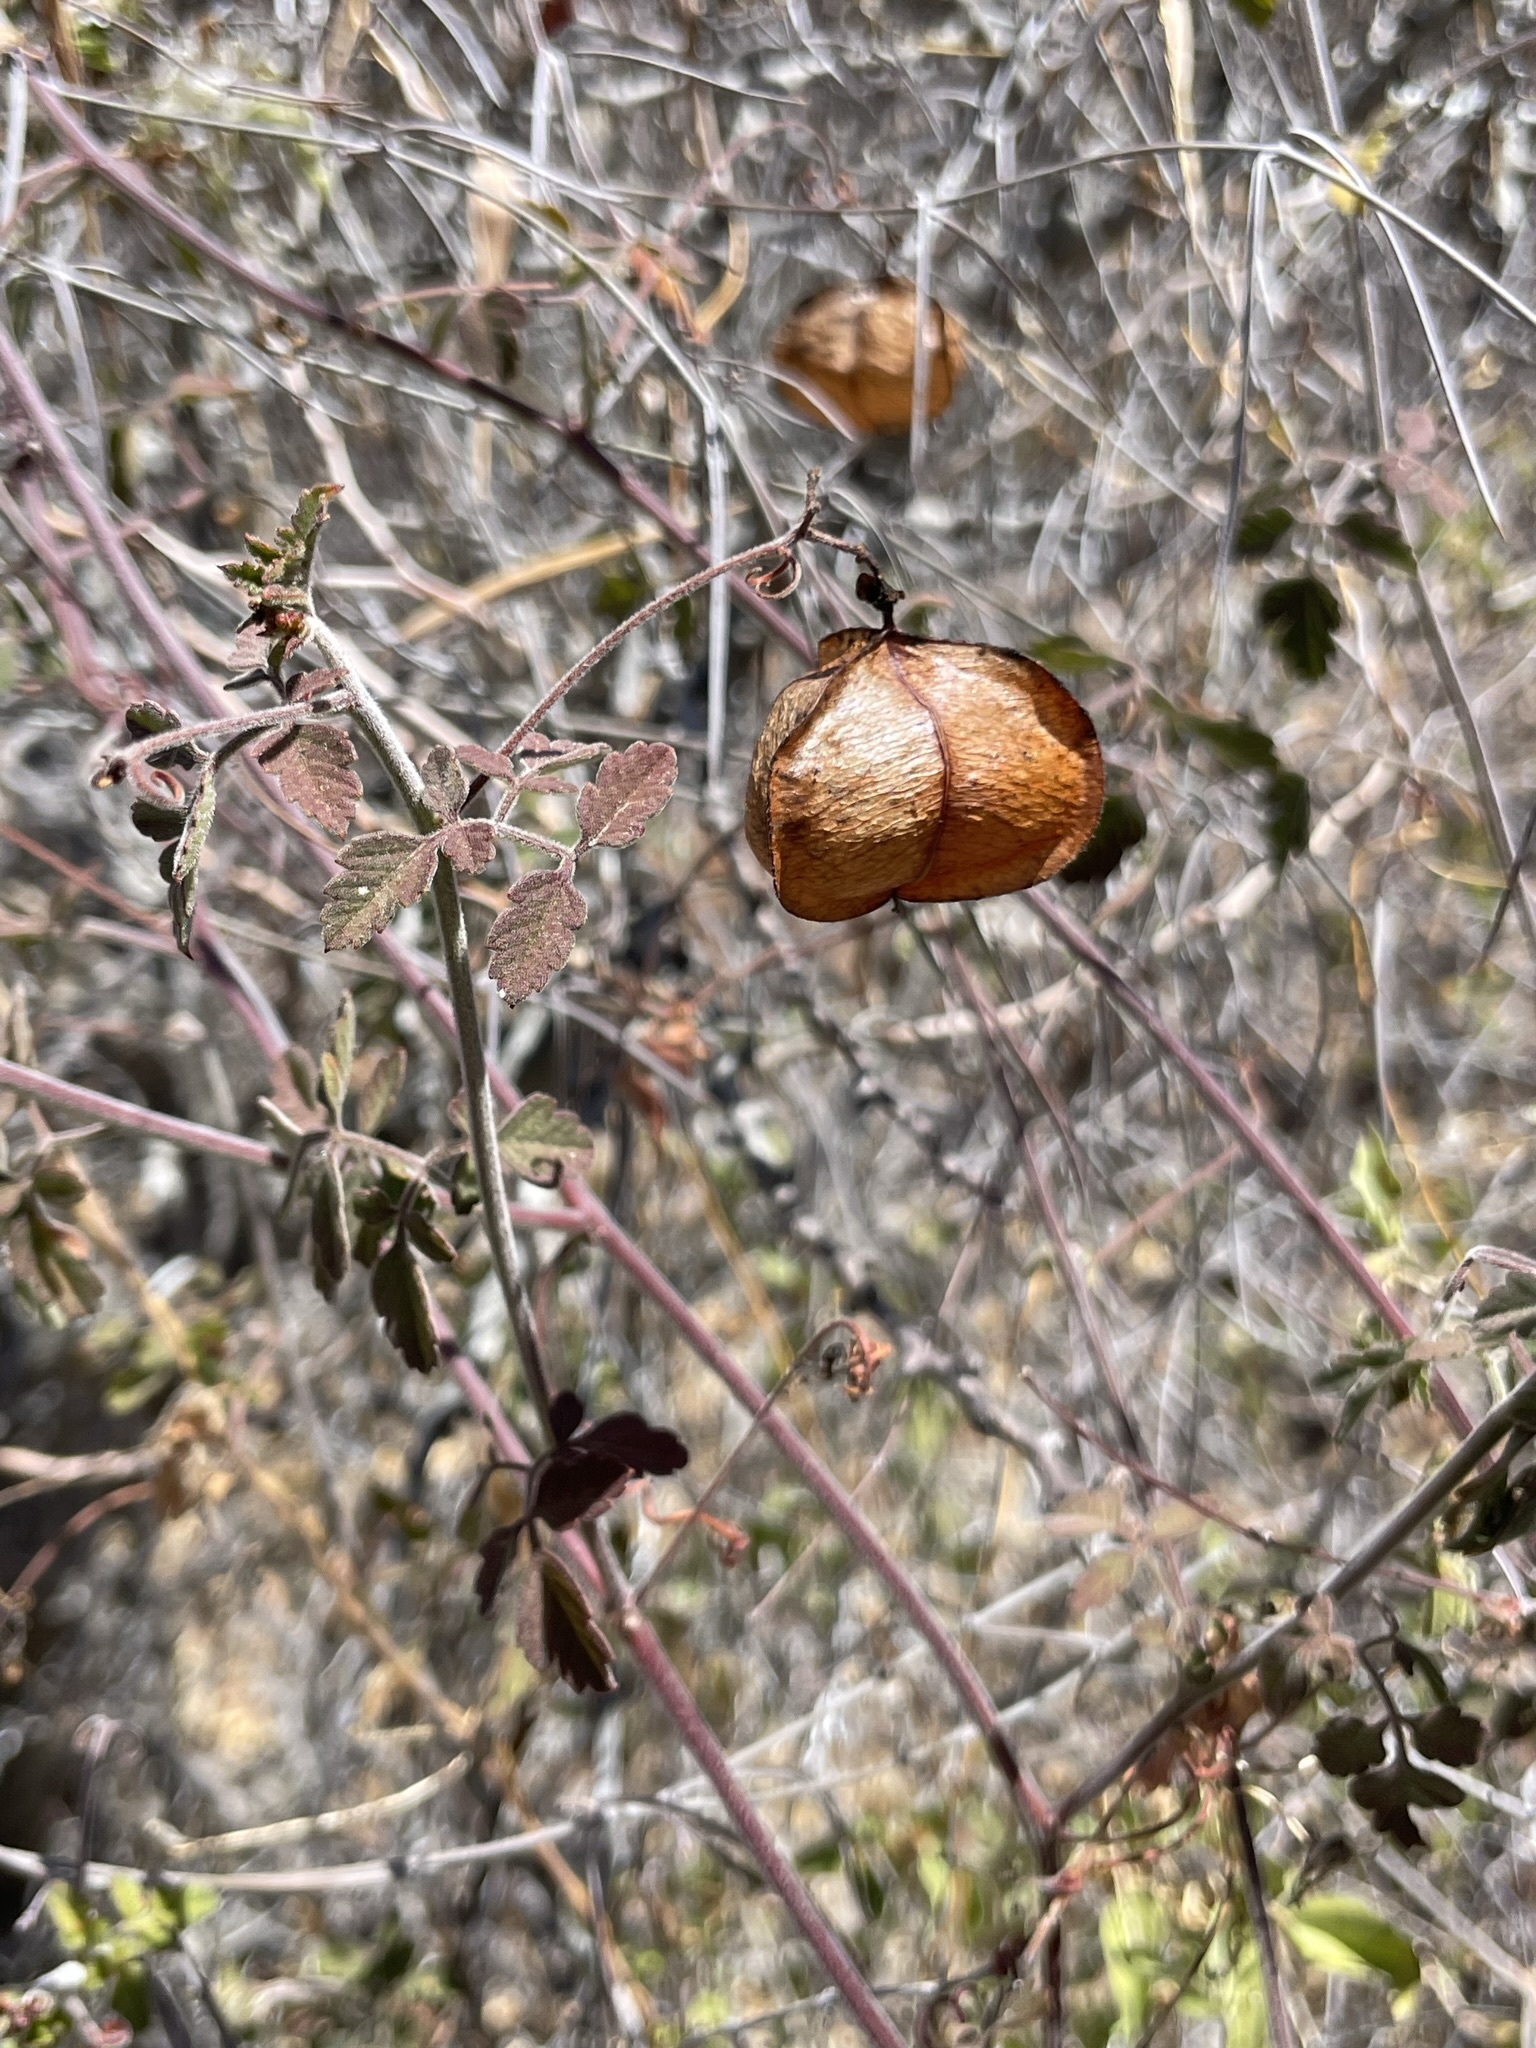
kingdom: Plantae
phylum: Tracheophyta
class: Magnoliopsida
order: Sapindales
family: Sapindaceae
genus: Cardiospermum
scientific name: Cardiospermum corindum
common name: Faux persil
